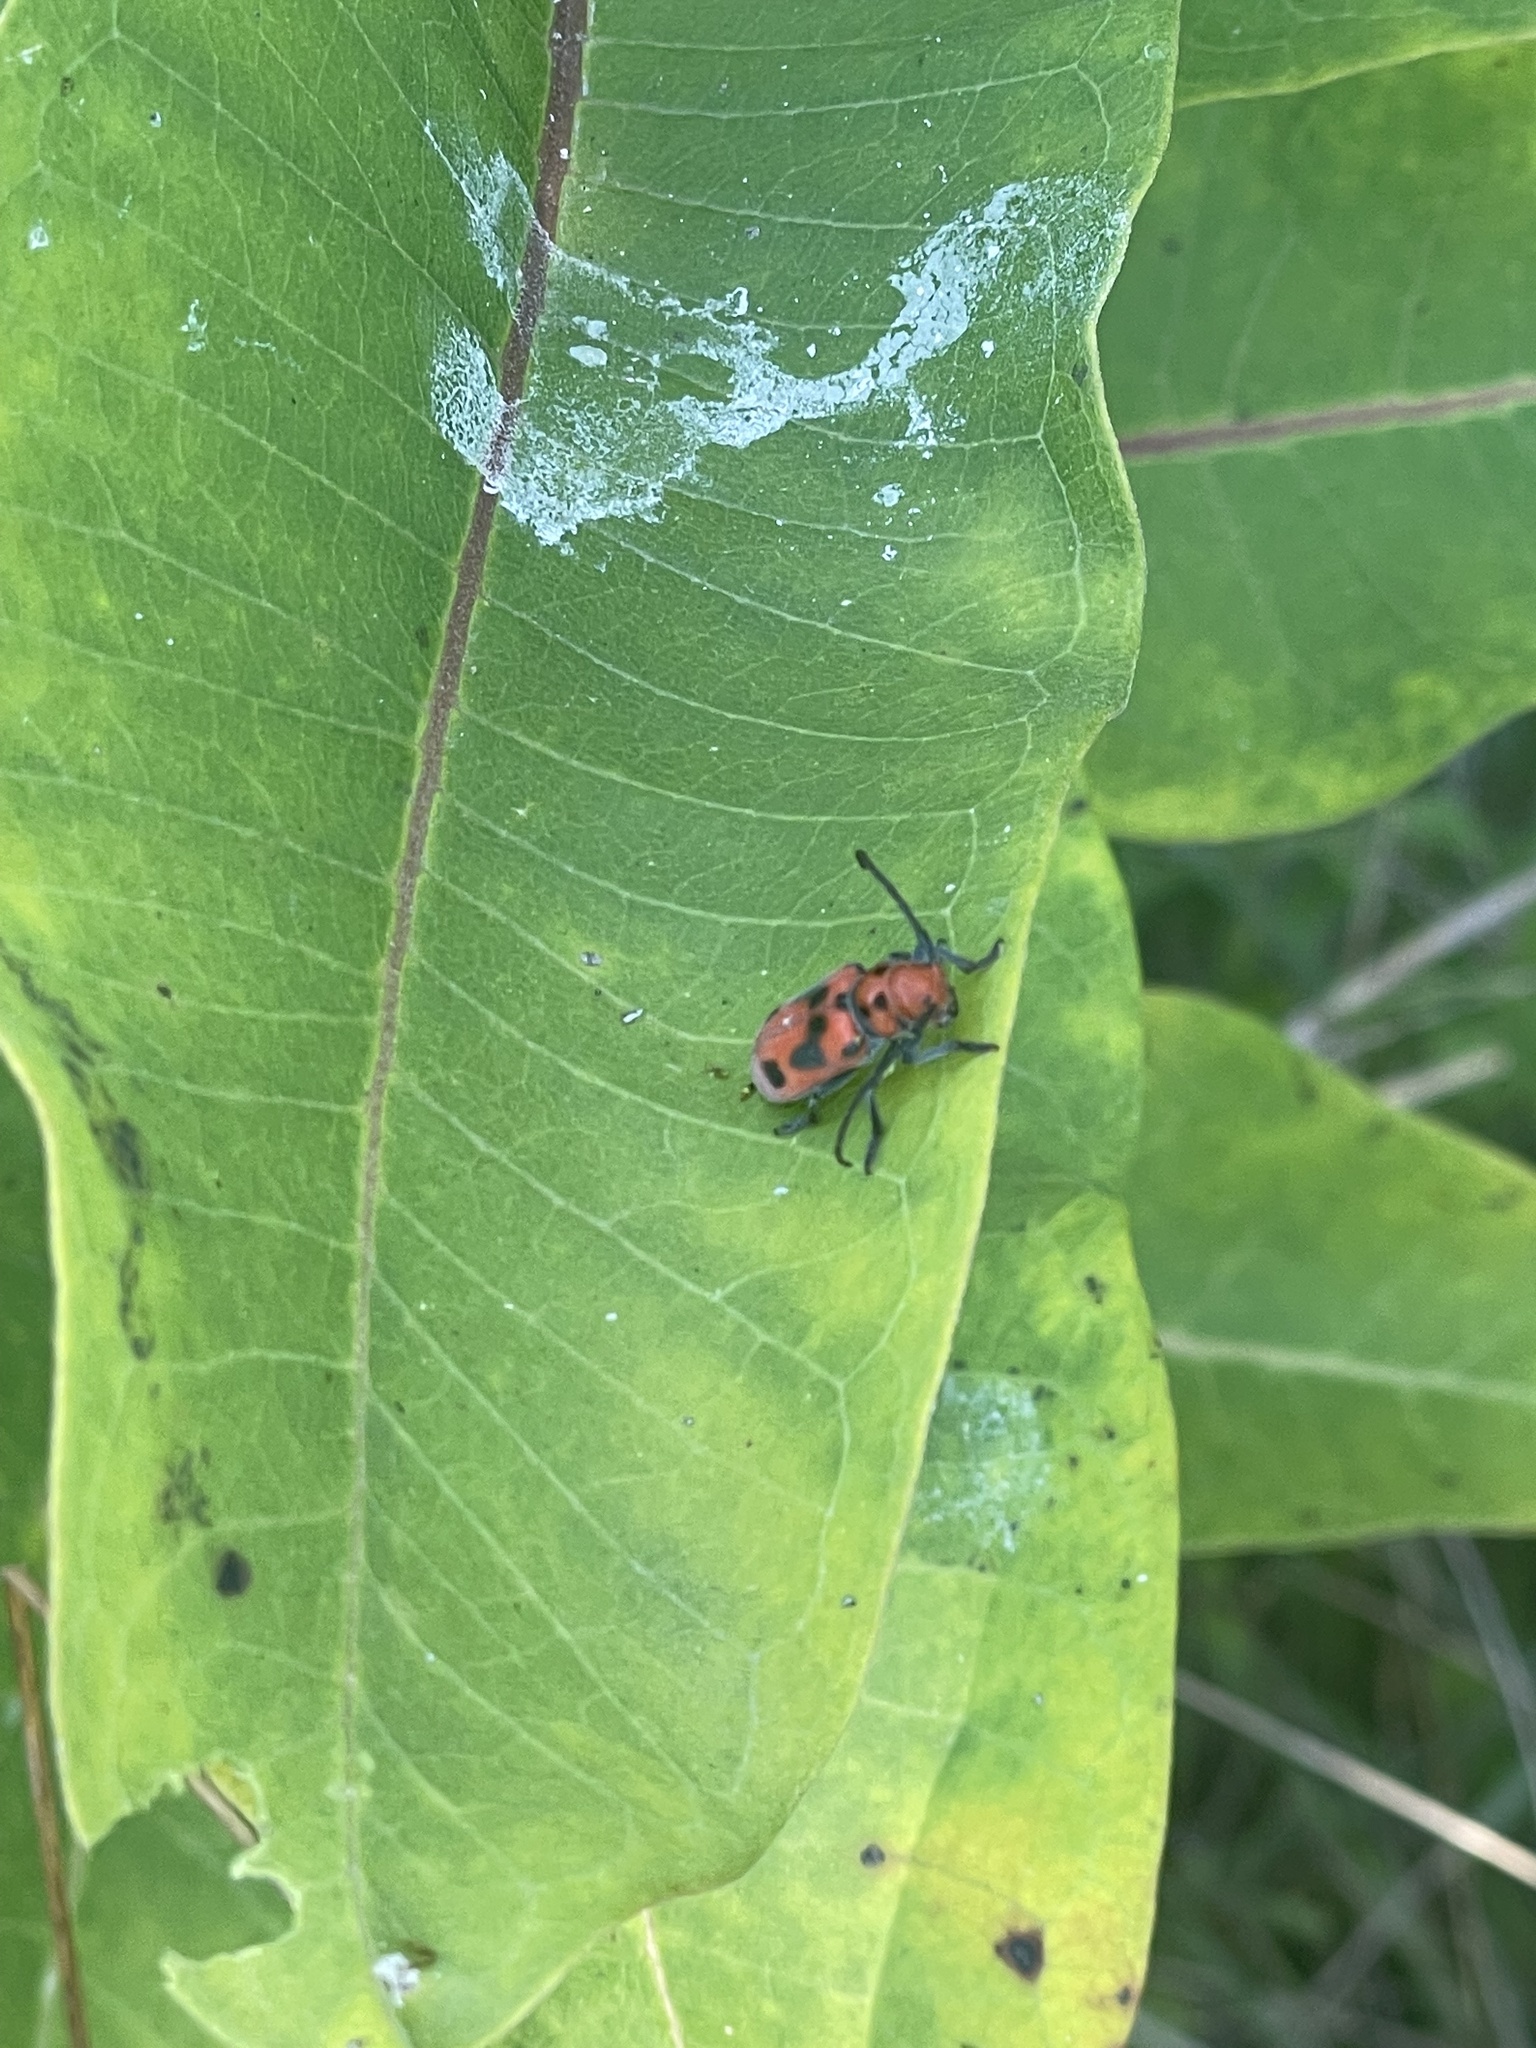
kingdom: Animalia
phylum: Arthropoda
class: Insecta
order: Coleoptera
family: Cerambycidae
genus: Tetraopes
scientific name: Tetraopes tetrophthalmus
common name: Red milkweed beetle
